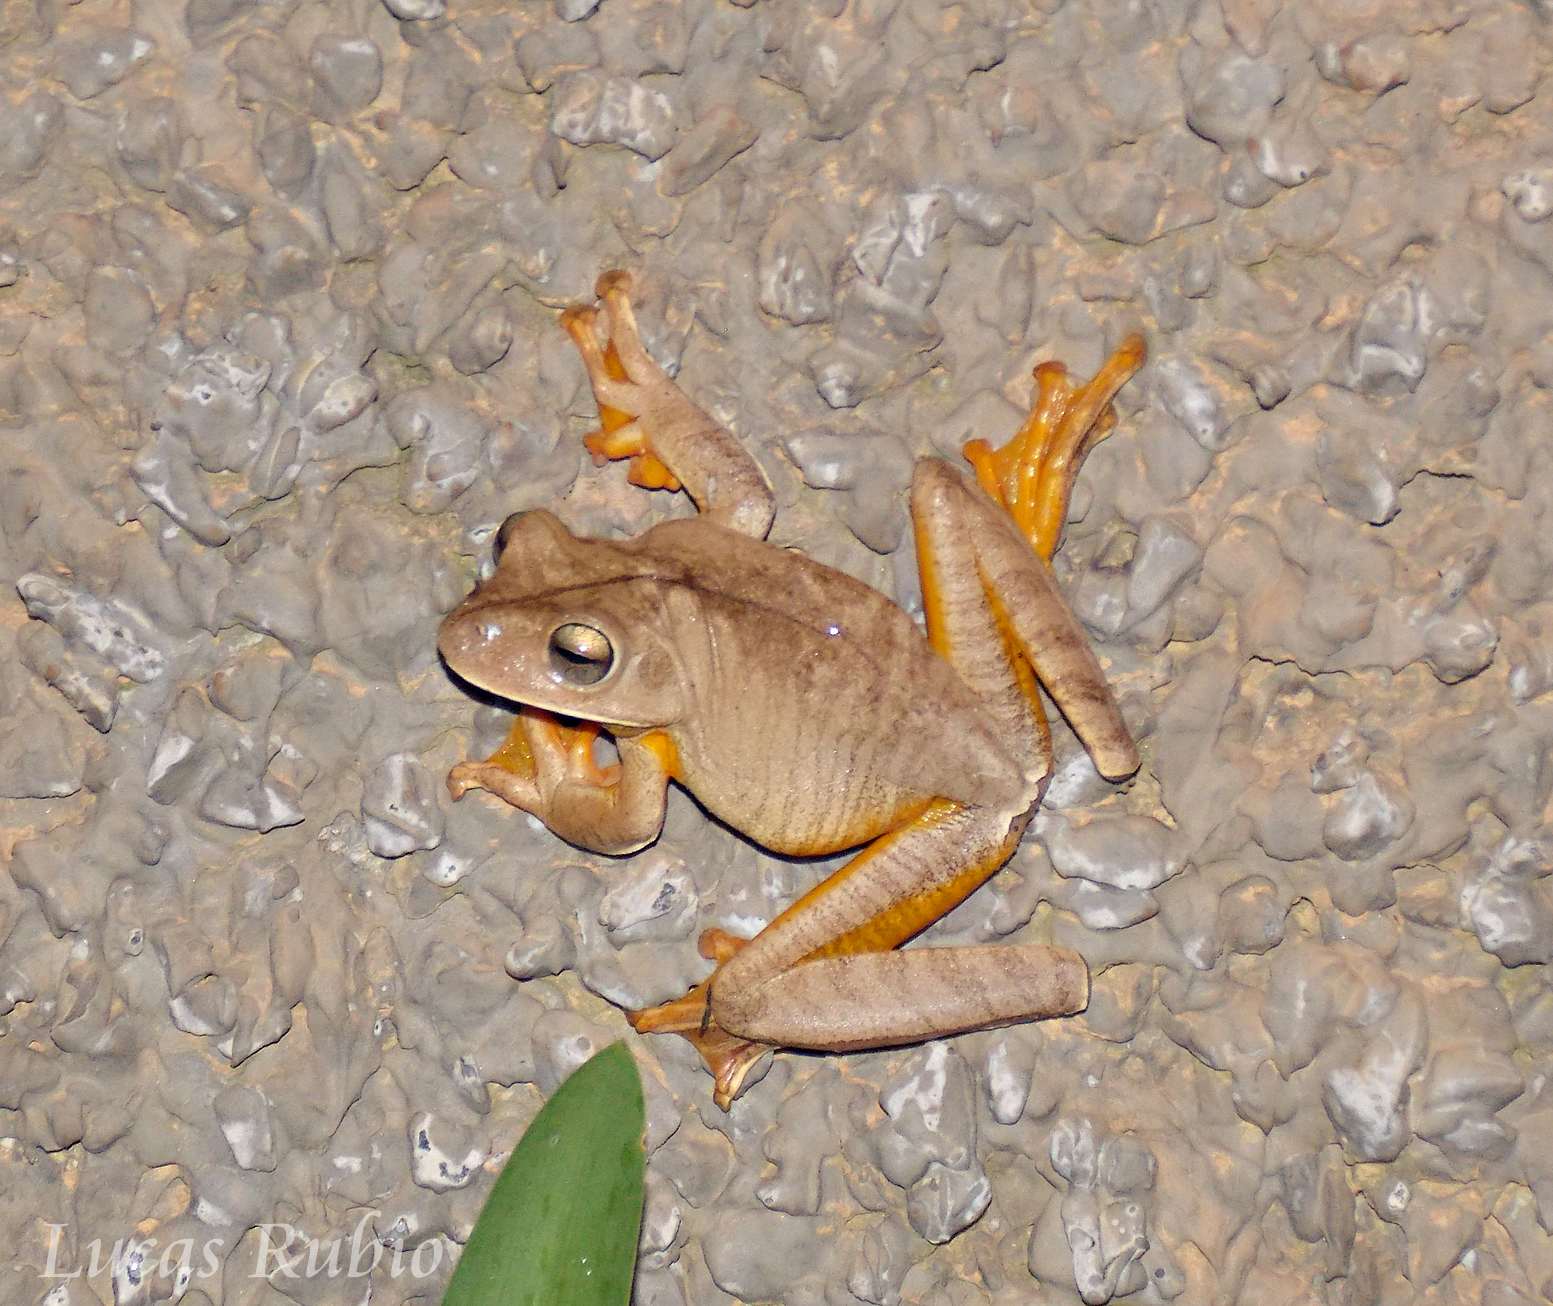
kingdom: Animalia
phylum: Chordata
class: Amphibia
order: Anura
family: Hylidae
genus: Boana
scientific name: Boana faber
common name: Blacksmith tree frog
